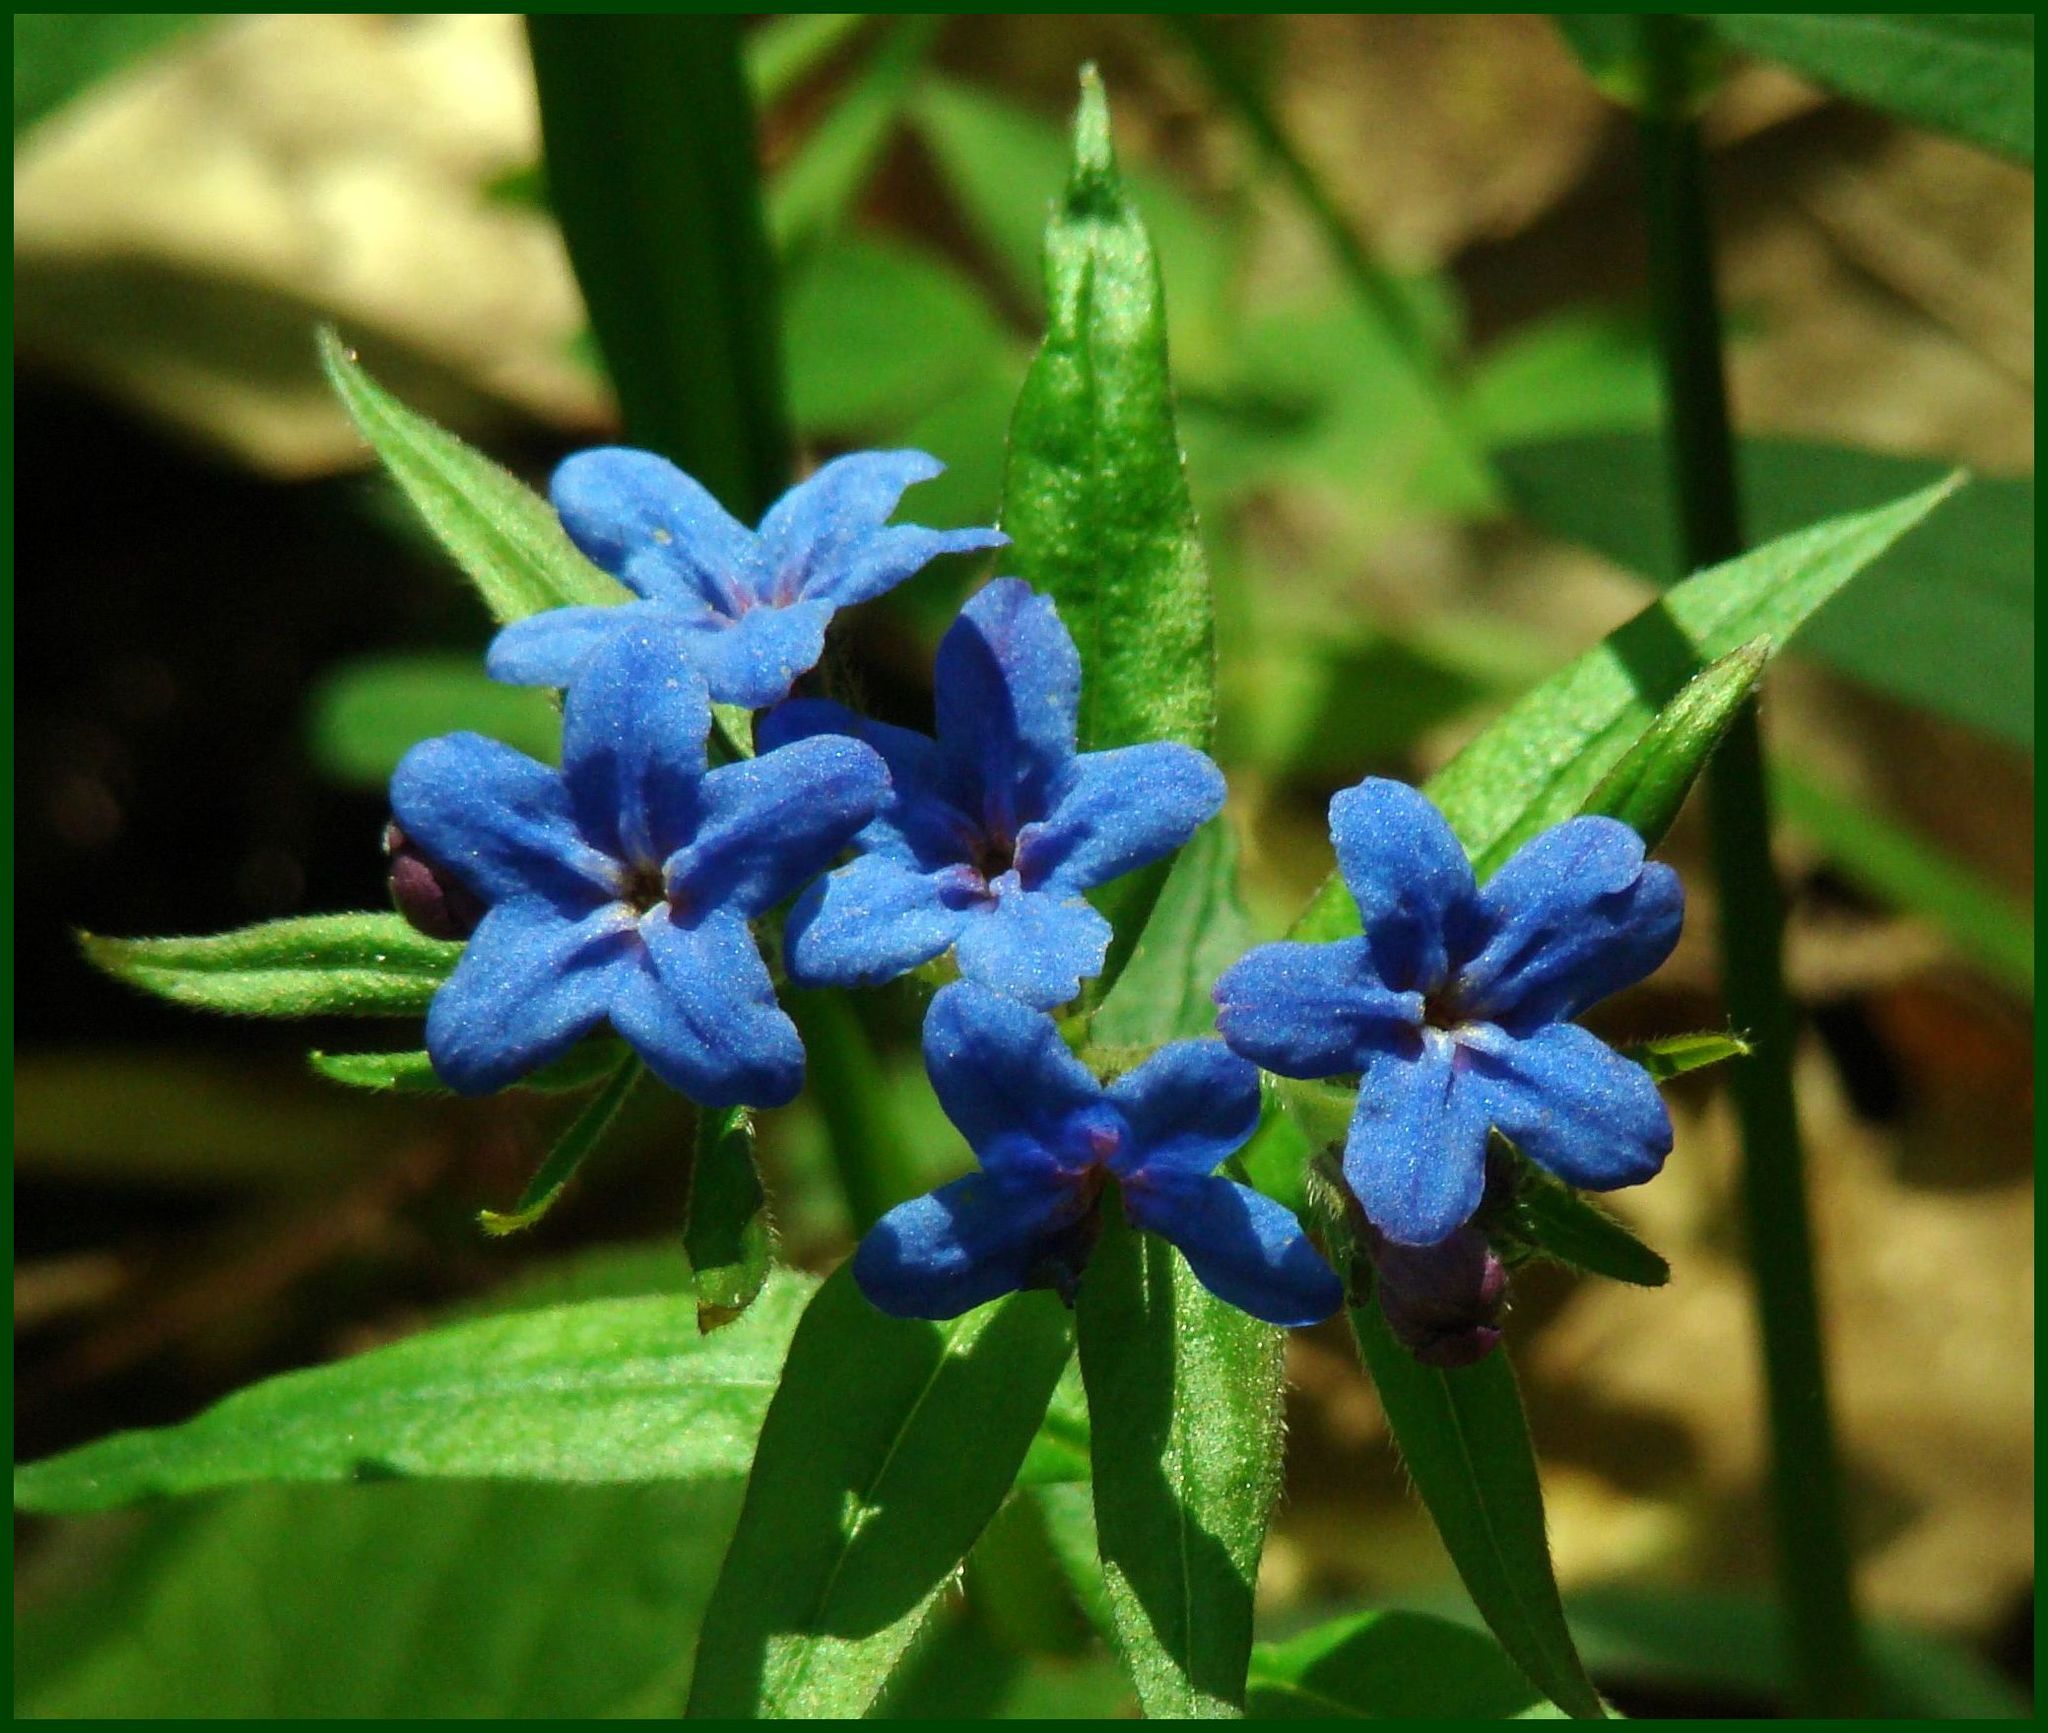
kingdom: Plantae
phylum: Tracheophyta
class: Magnoliopsida
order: Boraginales
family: Boraginaceae
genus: Aegonychon
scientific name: Aegonychon purpurocaeruleum
